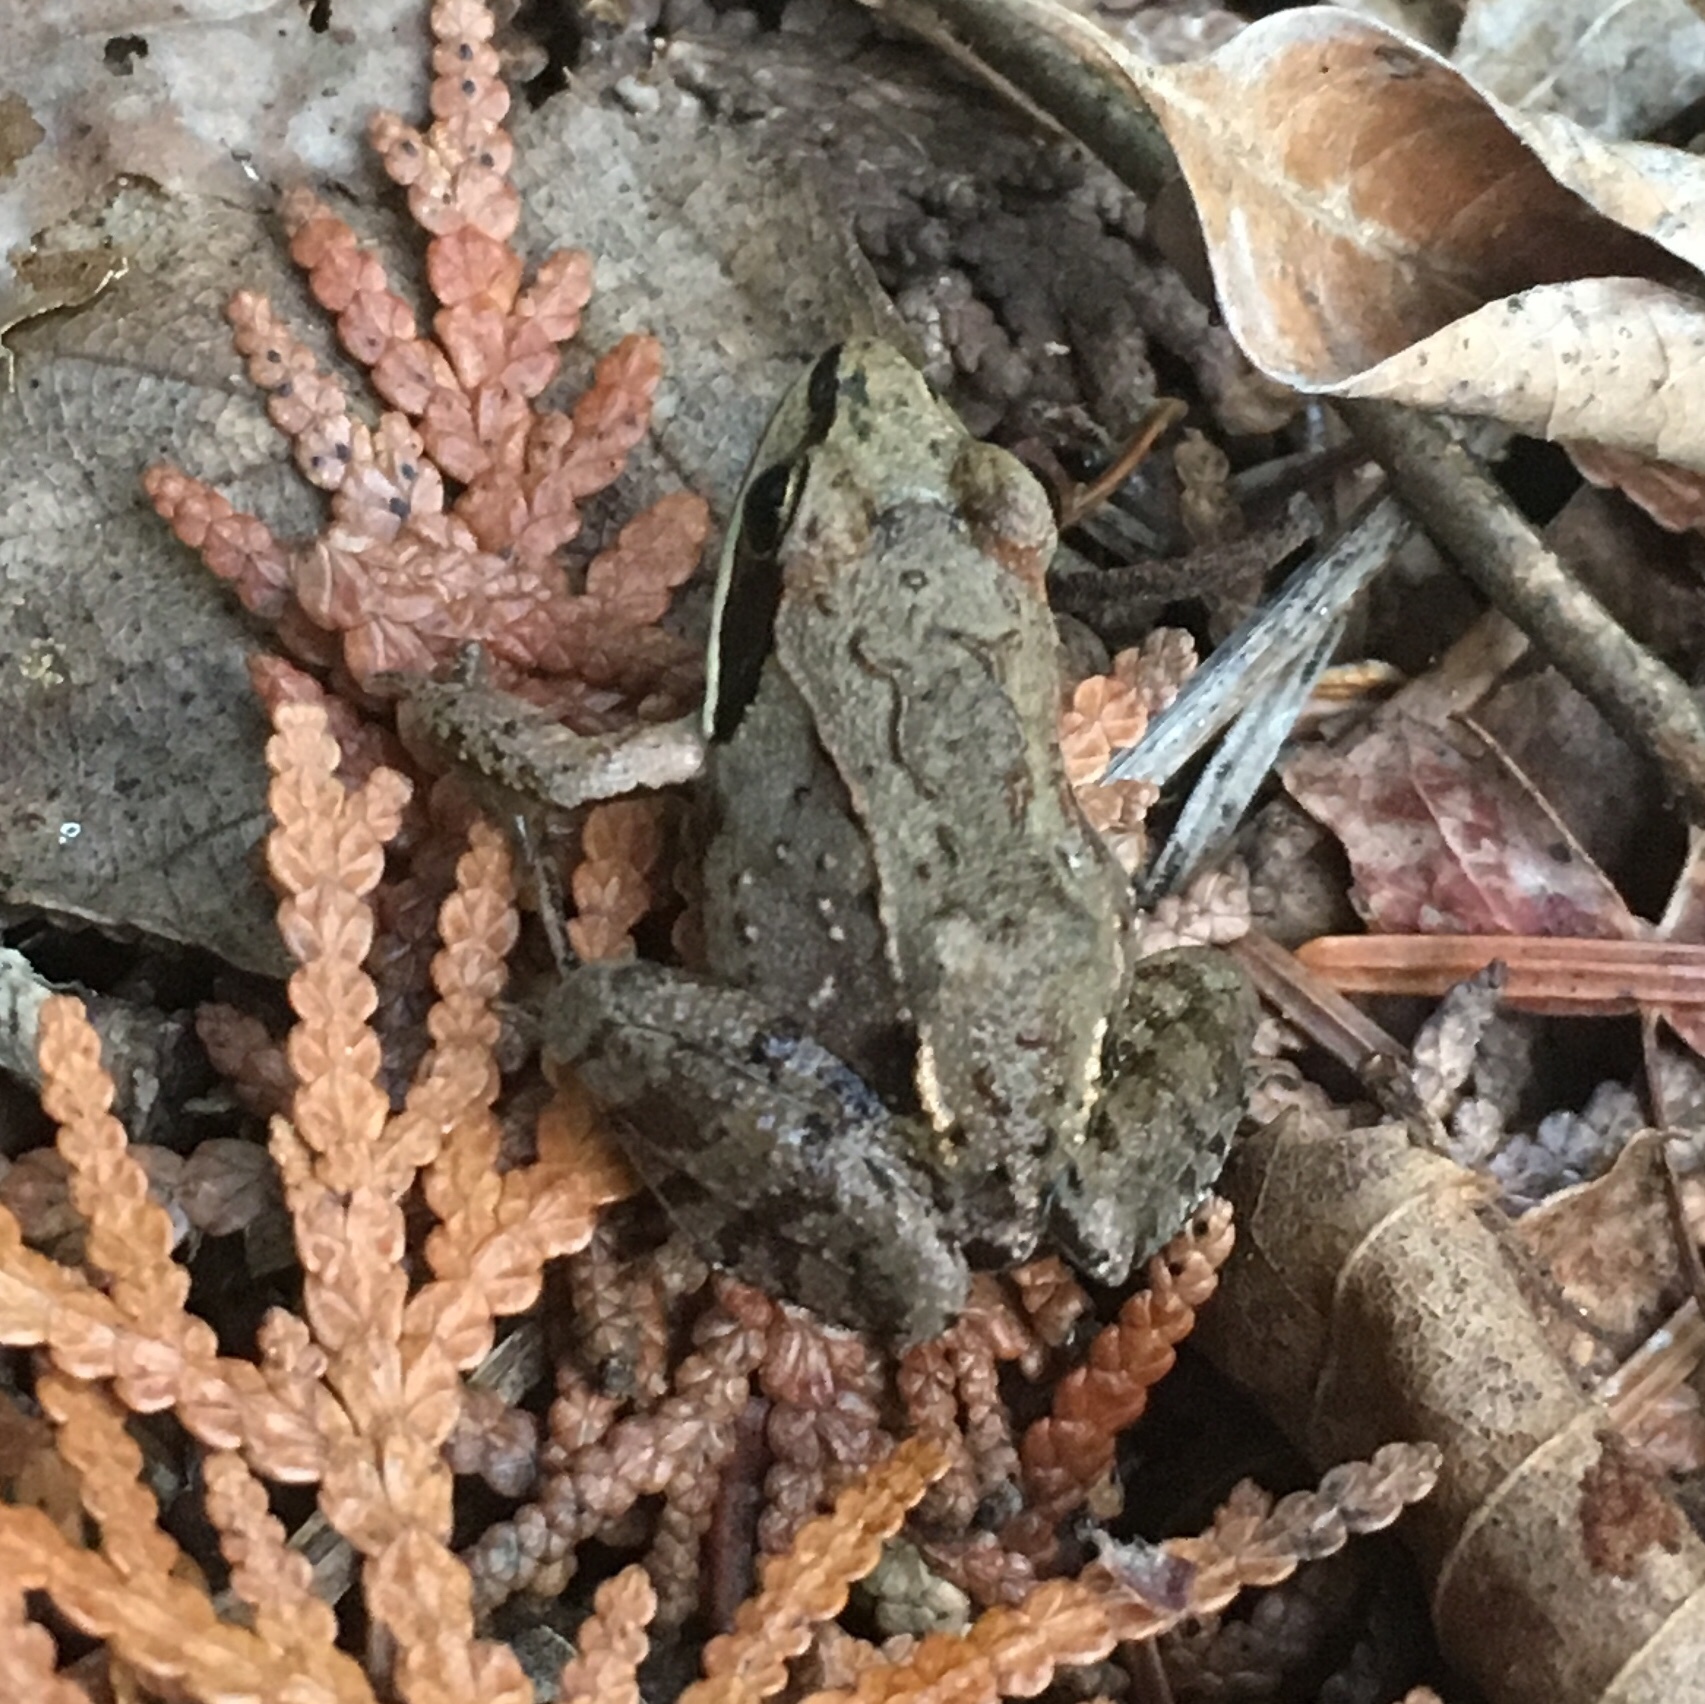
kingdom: Animalia
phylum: Chordata
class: Amphibia
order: Anura
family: Ranidae
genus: Lithobates
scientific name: Lithobates sylvaticus
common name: Wood frog
